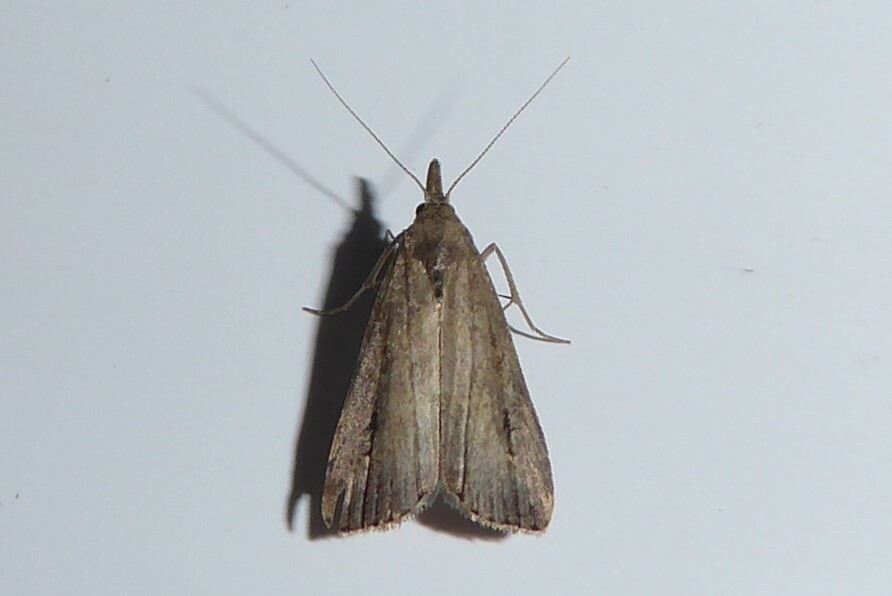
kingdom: Animalia
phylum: Arthropoda
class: Insecta
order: Lepidoptera
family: Erebidae
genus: Schrankia
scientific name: Schrankia costaestrigalis
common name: Pinion-streaked snout
